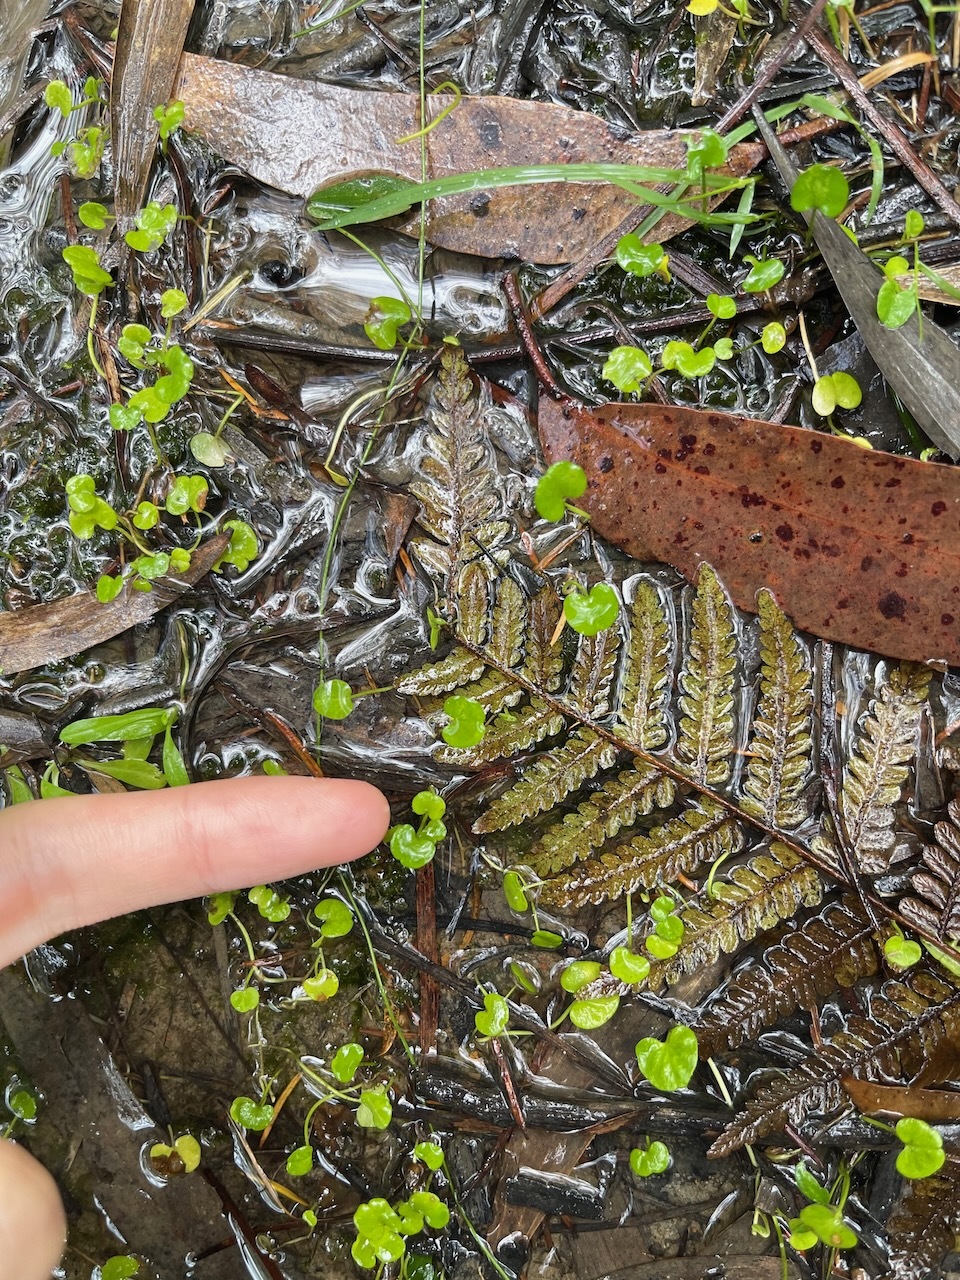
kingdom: Plantae
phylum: Tracheophyta
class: Magnoliopsida
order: Solanales
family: Convolvulaceae
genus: Dichondra
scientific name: Dichondra repens
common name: Kidneyweed
